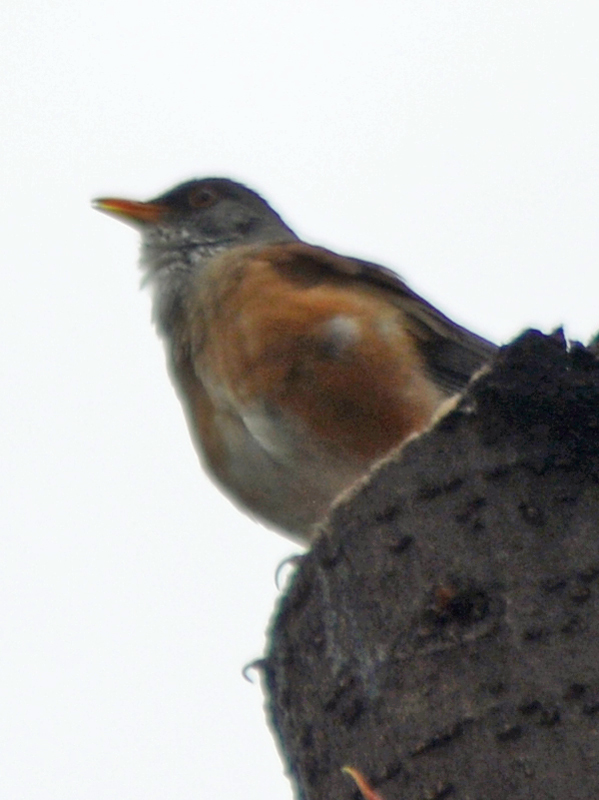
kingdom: Animalia
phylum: Chordata
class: Aves
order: Passeriformes
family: Turdidae
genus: Turdus
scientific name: Turdus rufopalliatus
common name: Rufous-backed robin
